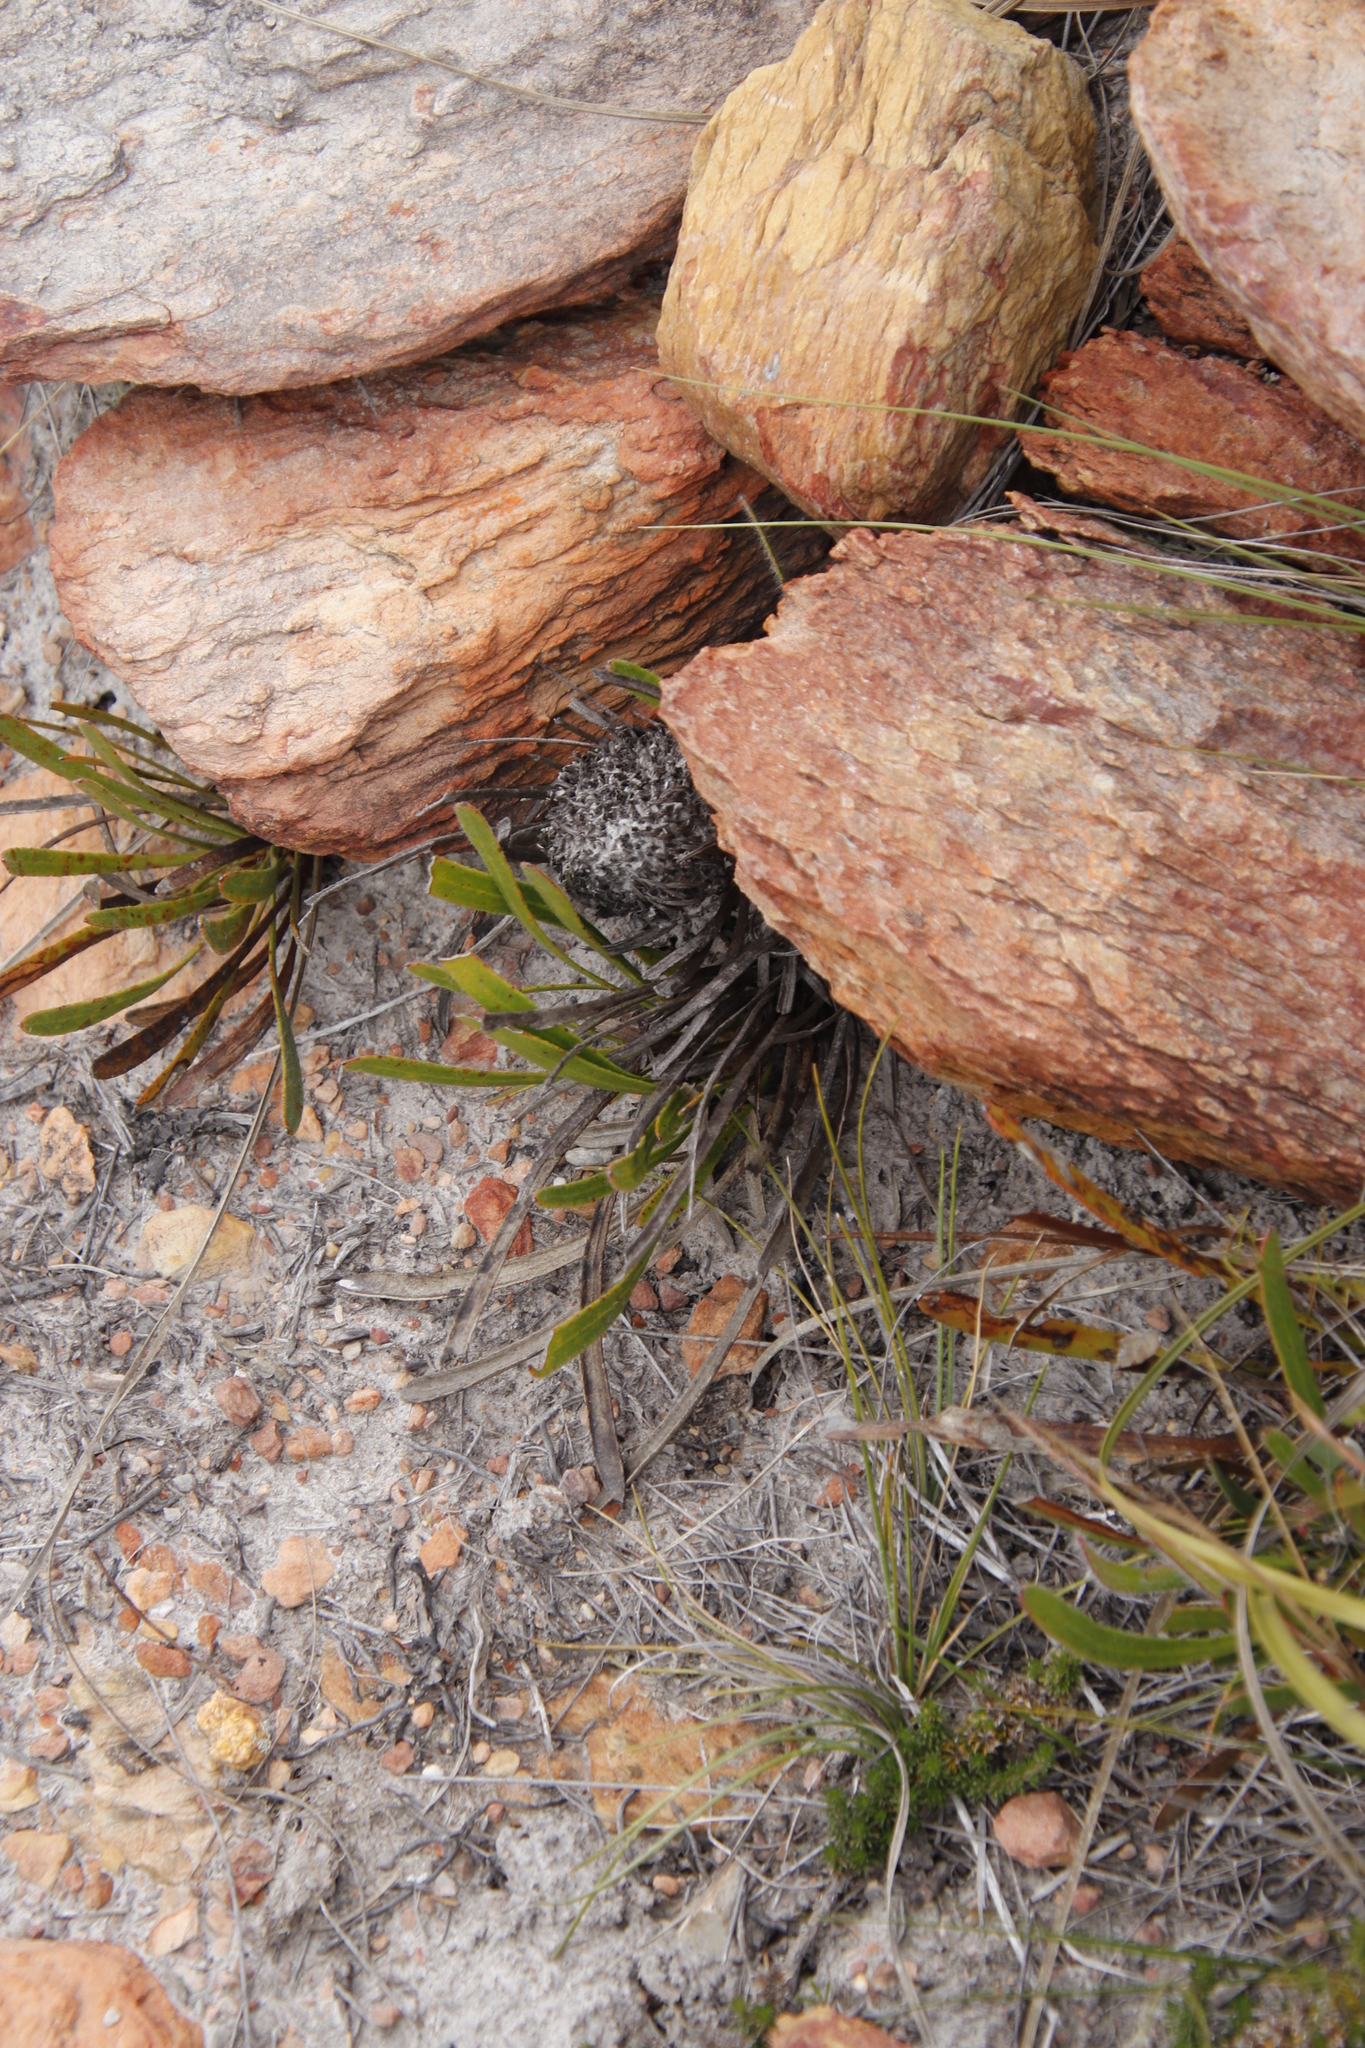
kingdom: Plantae
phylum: Tracheophyta
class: Magnoliopsida
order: Proteales
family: Proteaceae
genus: Protea
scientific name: Protea aspera
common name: Rough-leaf sugarbush
